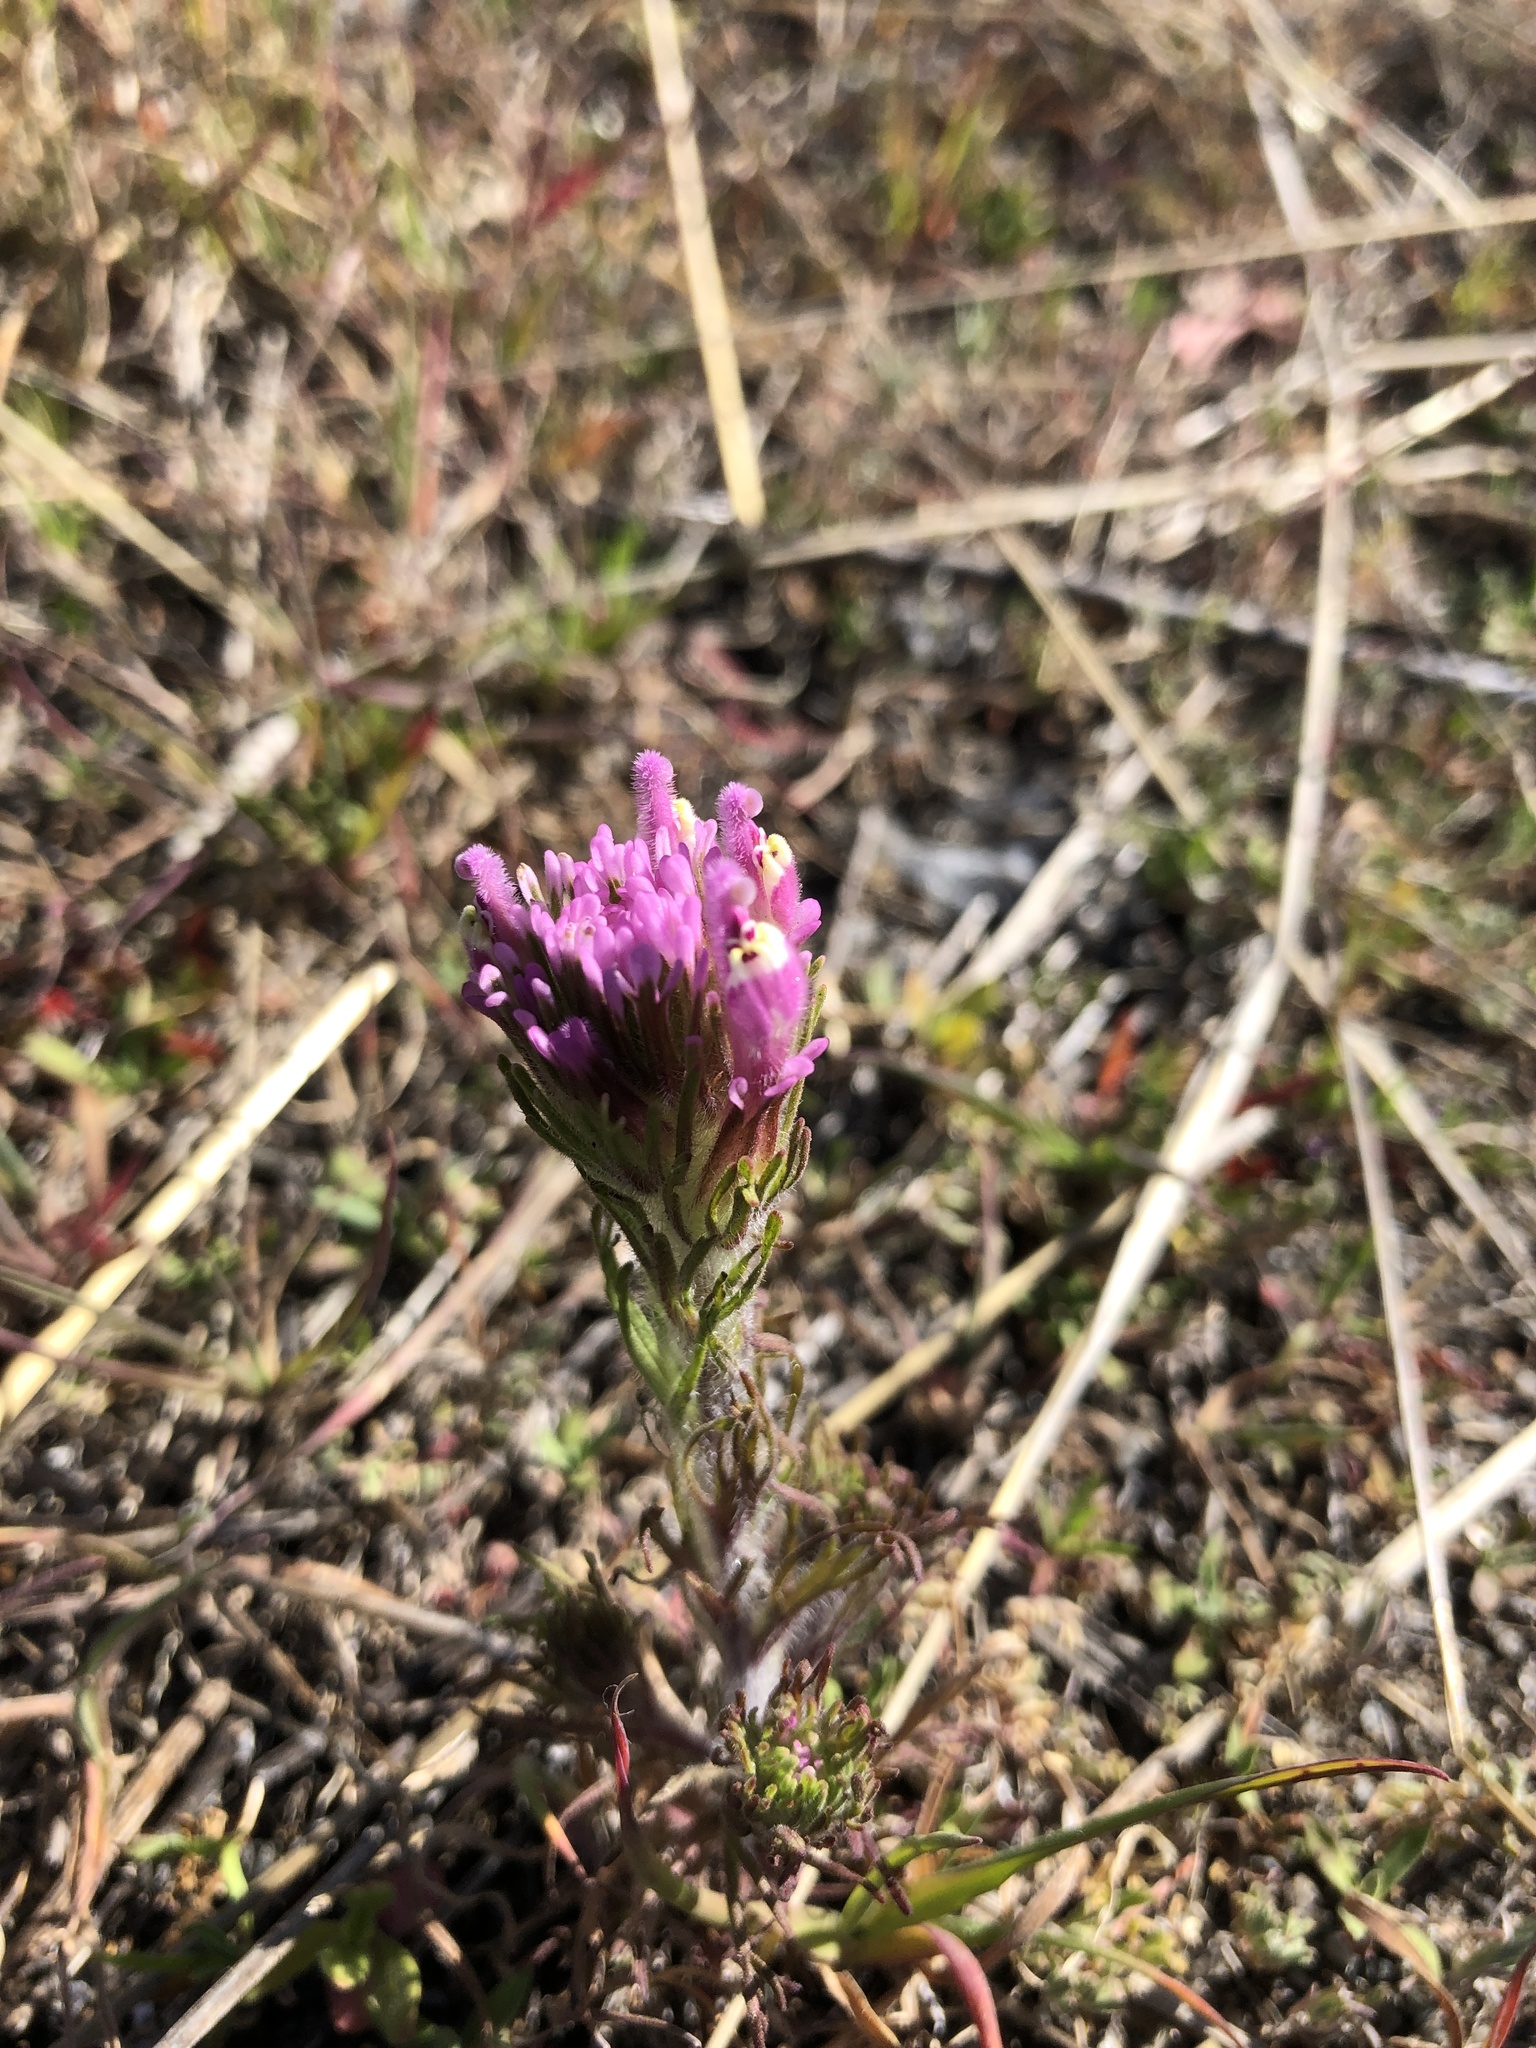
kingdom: Plantae
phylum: Tracheophyta
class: Magnoliopsida
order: Lamiales
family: Orobanchaceae
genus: Castilleja
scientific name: Castilleja exserta
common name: Purple owl-clover
